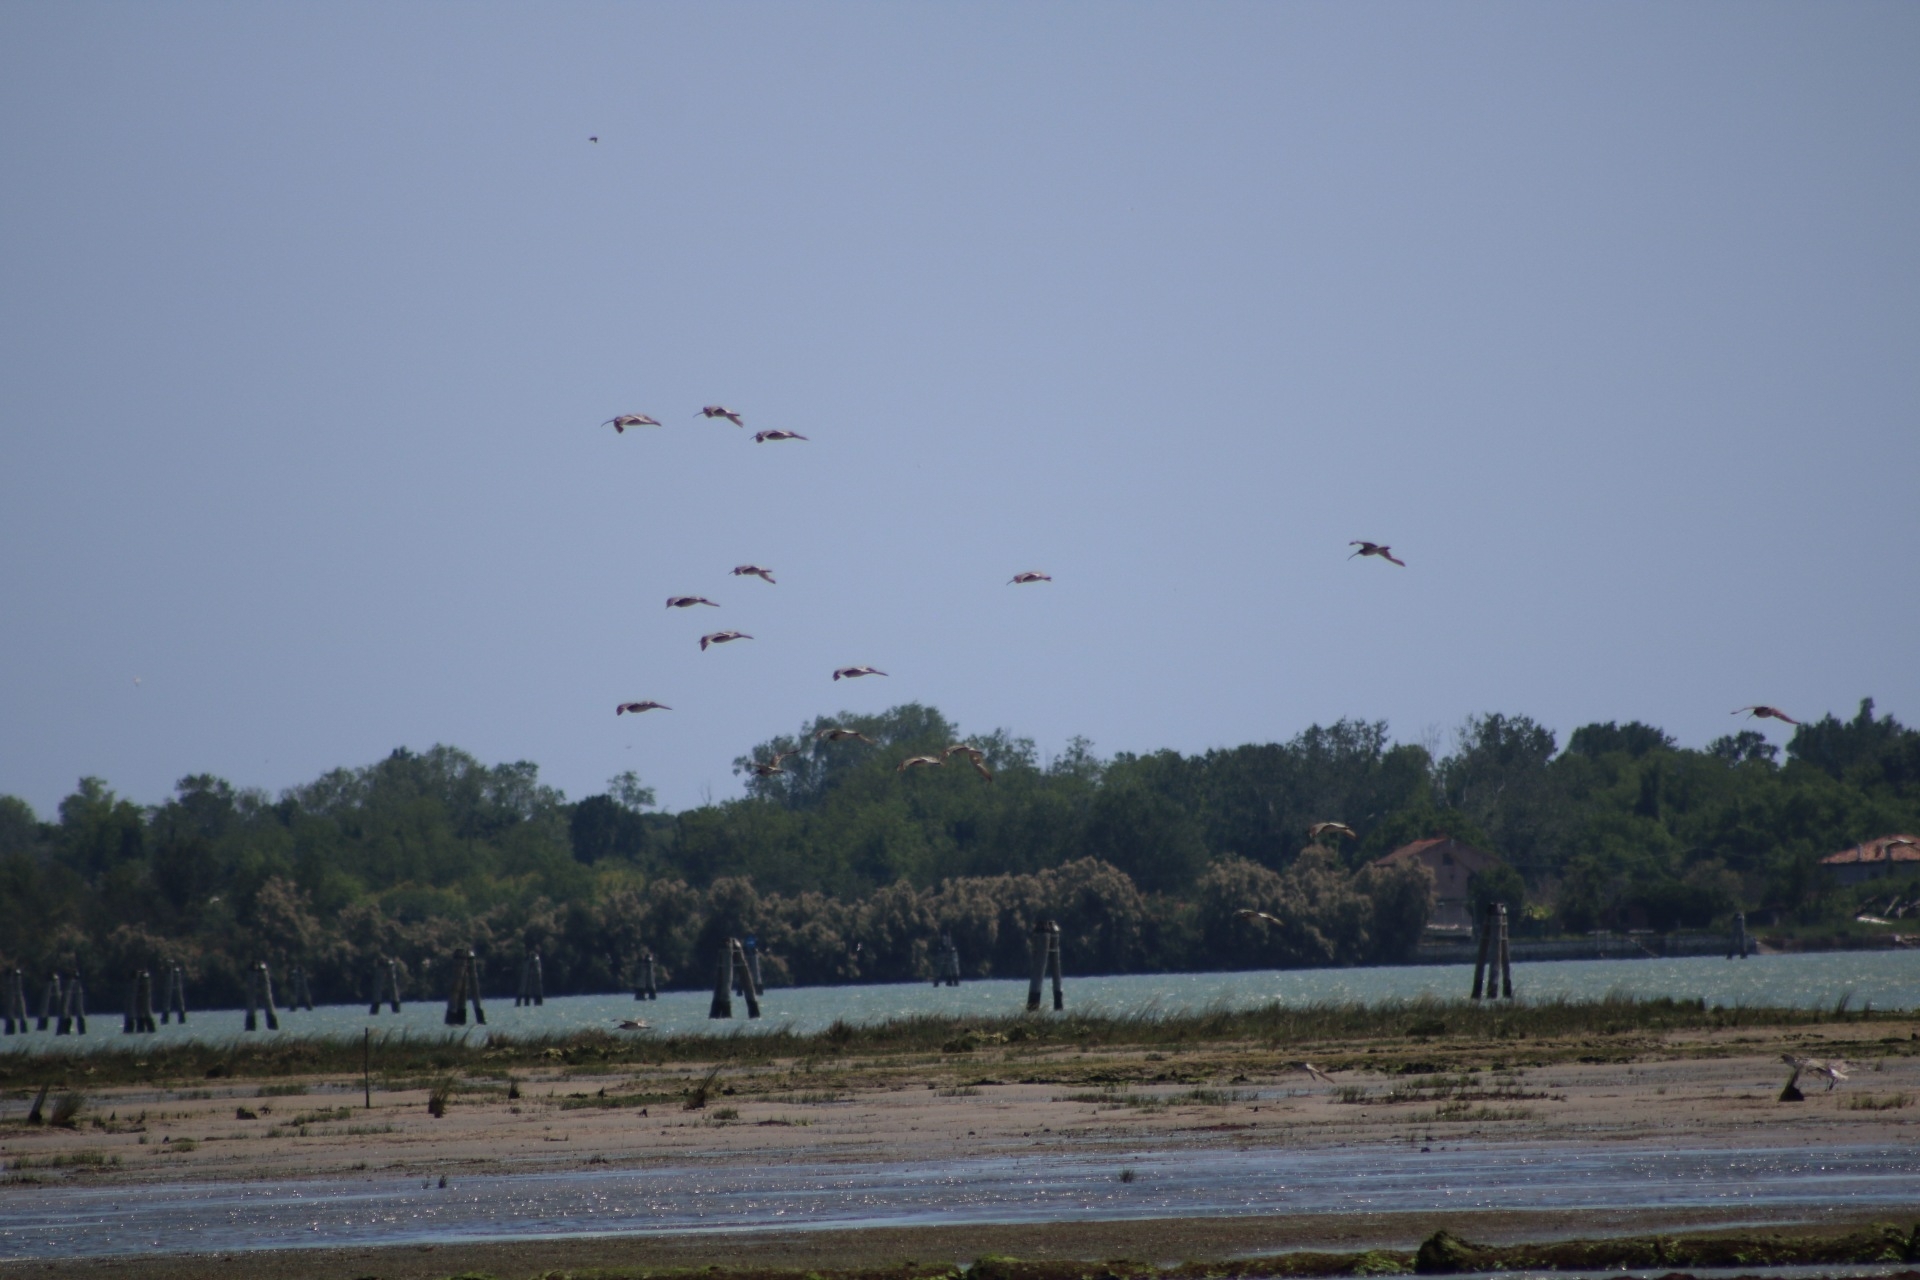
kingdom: Animalia
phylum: Chordata
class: Aves
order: Charadriiformes
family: Scolopacidae
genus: Numenius
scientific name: Numenius arquata
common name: Eurasian curlew
